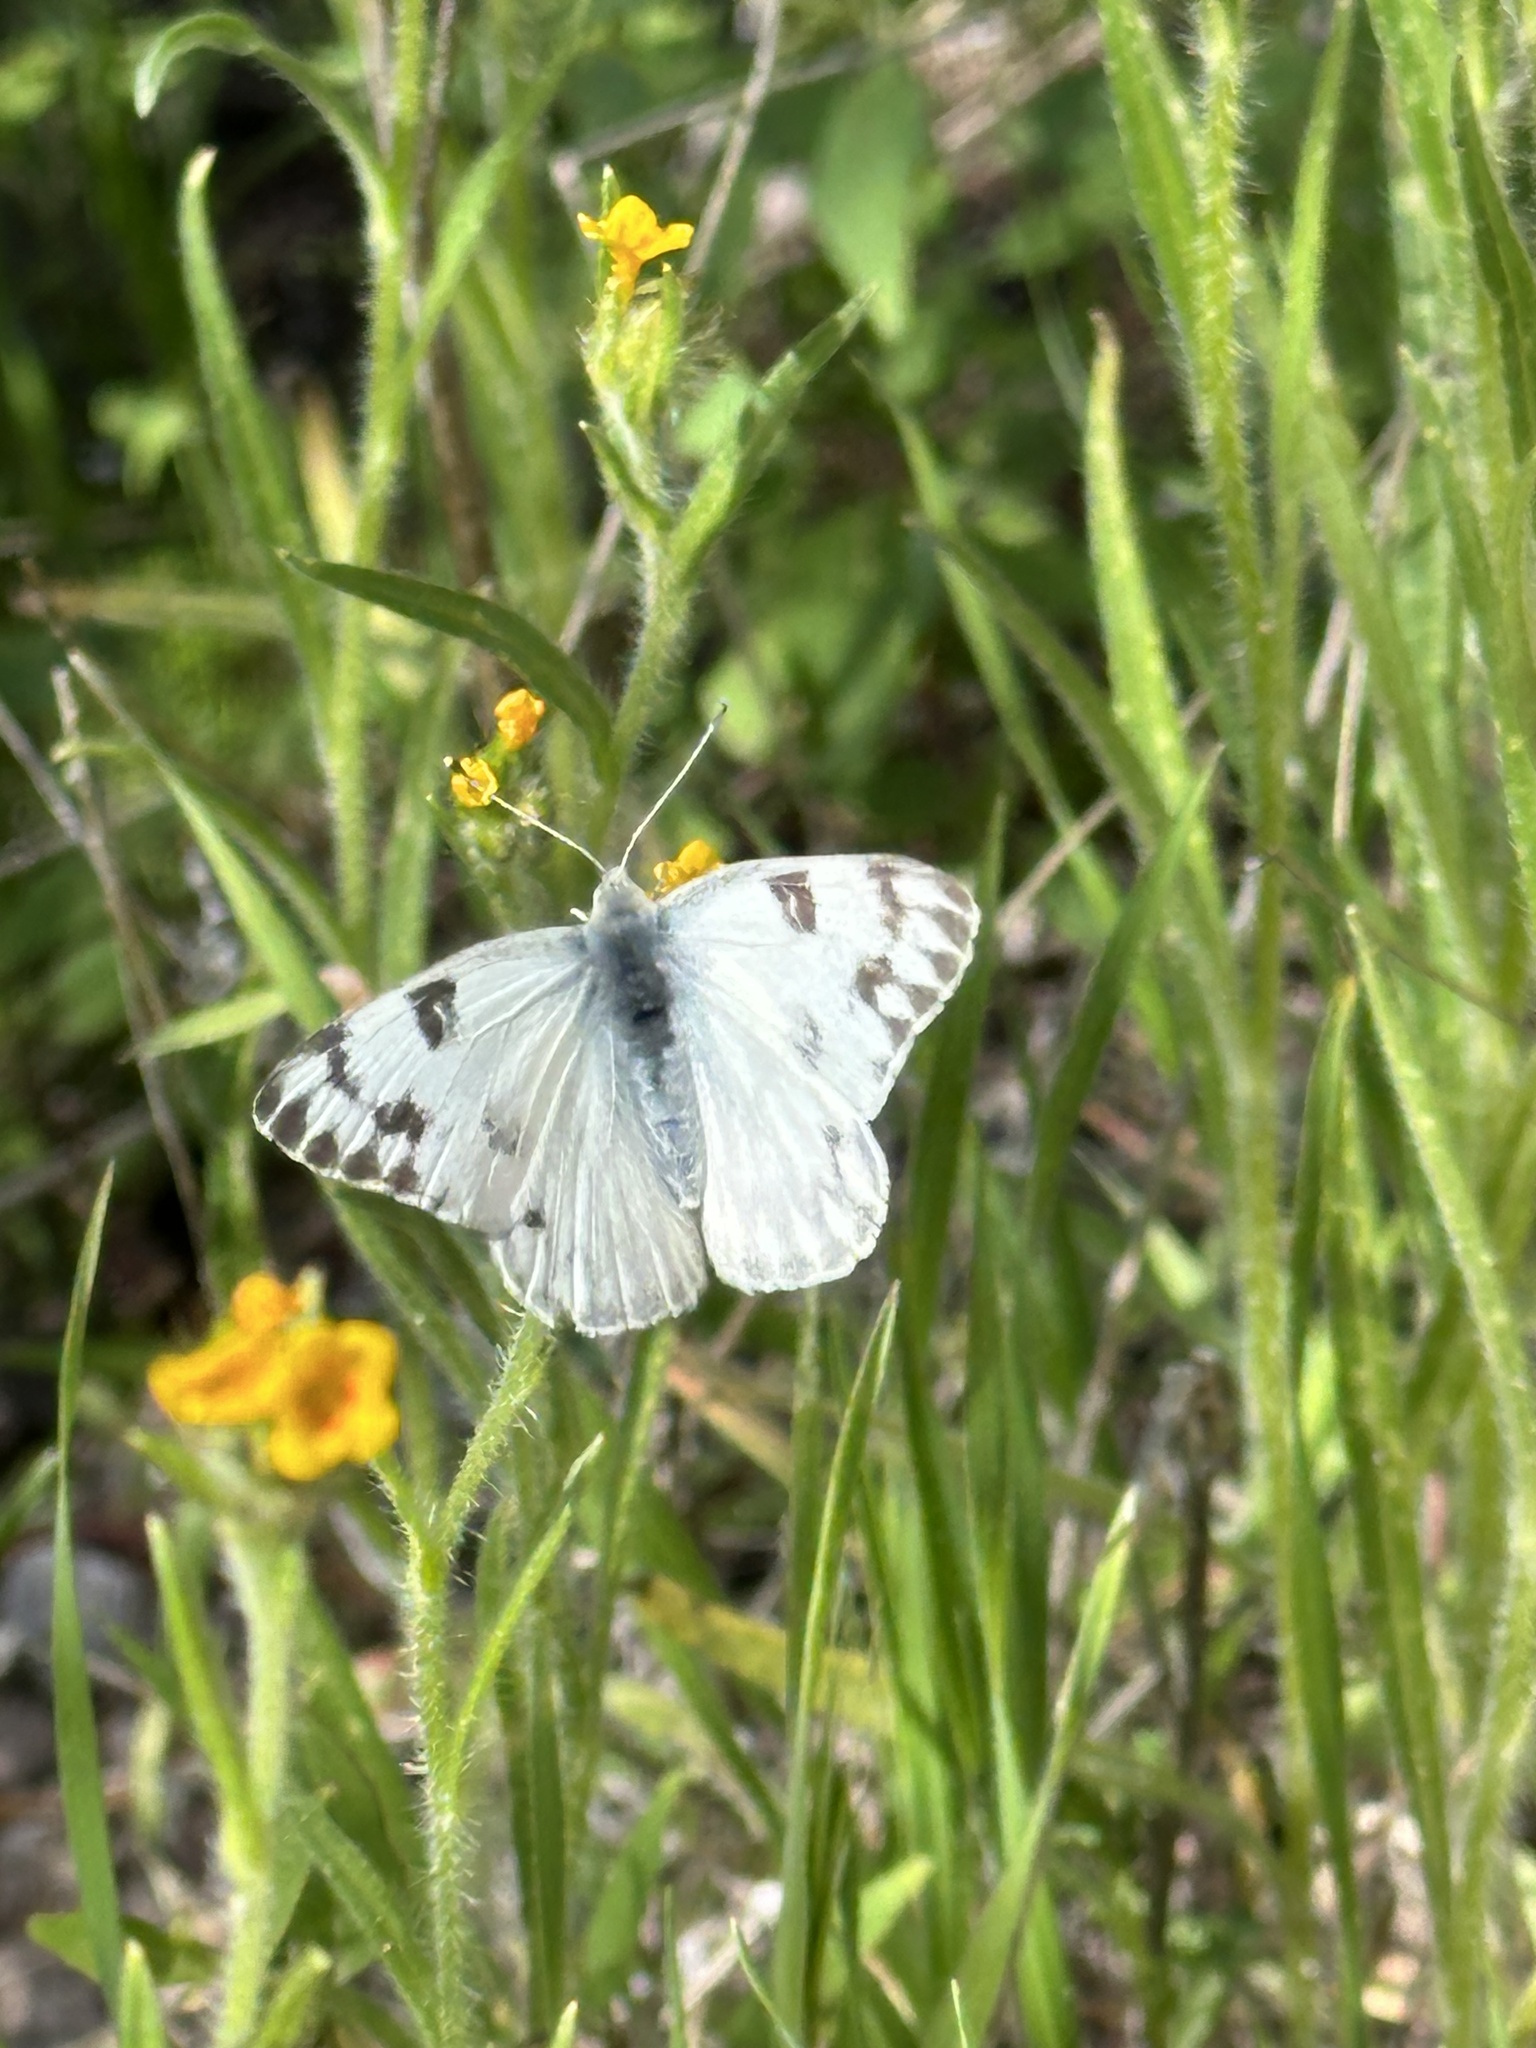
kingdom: Animalia
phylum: Arthropoda
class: Insecta
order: Lepidoptera
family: Pieridae
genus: Pontia
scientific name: Pontia protodice
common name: Checkered white
